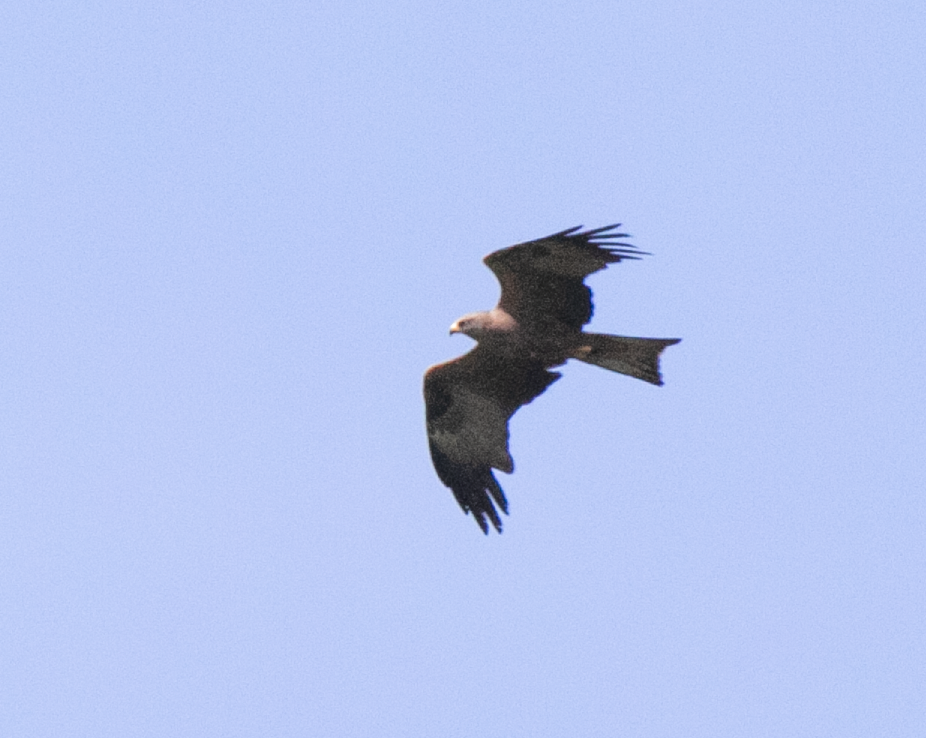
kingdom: Animalia
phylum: Chordata
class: Aves
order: Accipitriformes
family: Accipitridae
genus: Milvus
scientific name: Milvus migrans
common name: Black kite
